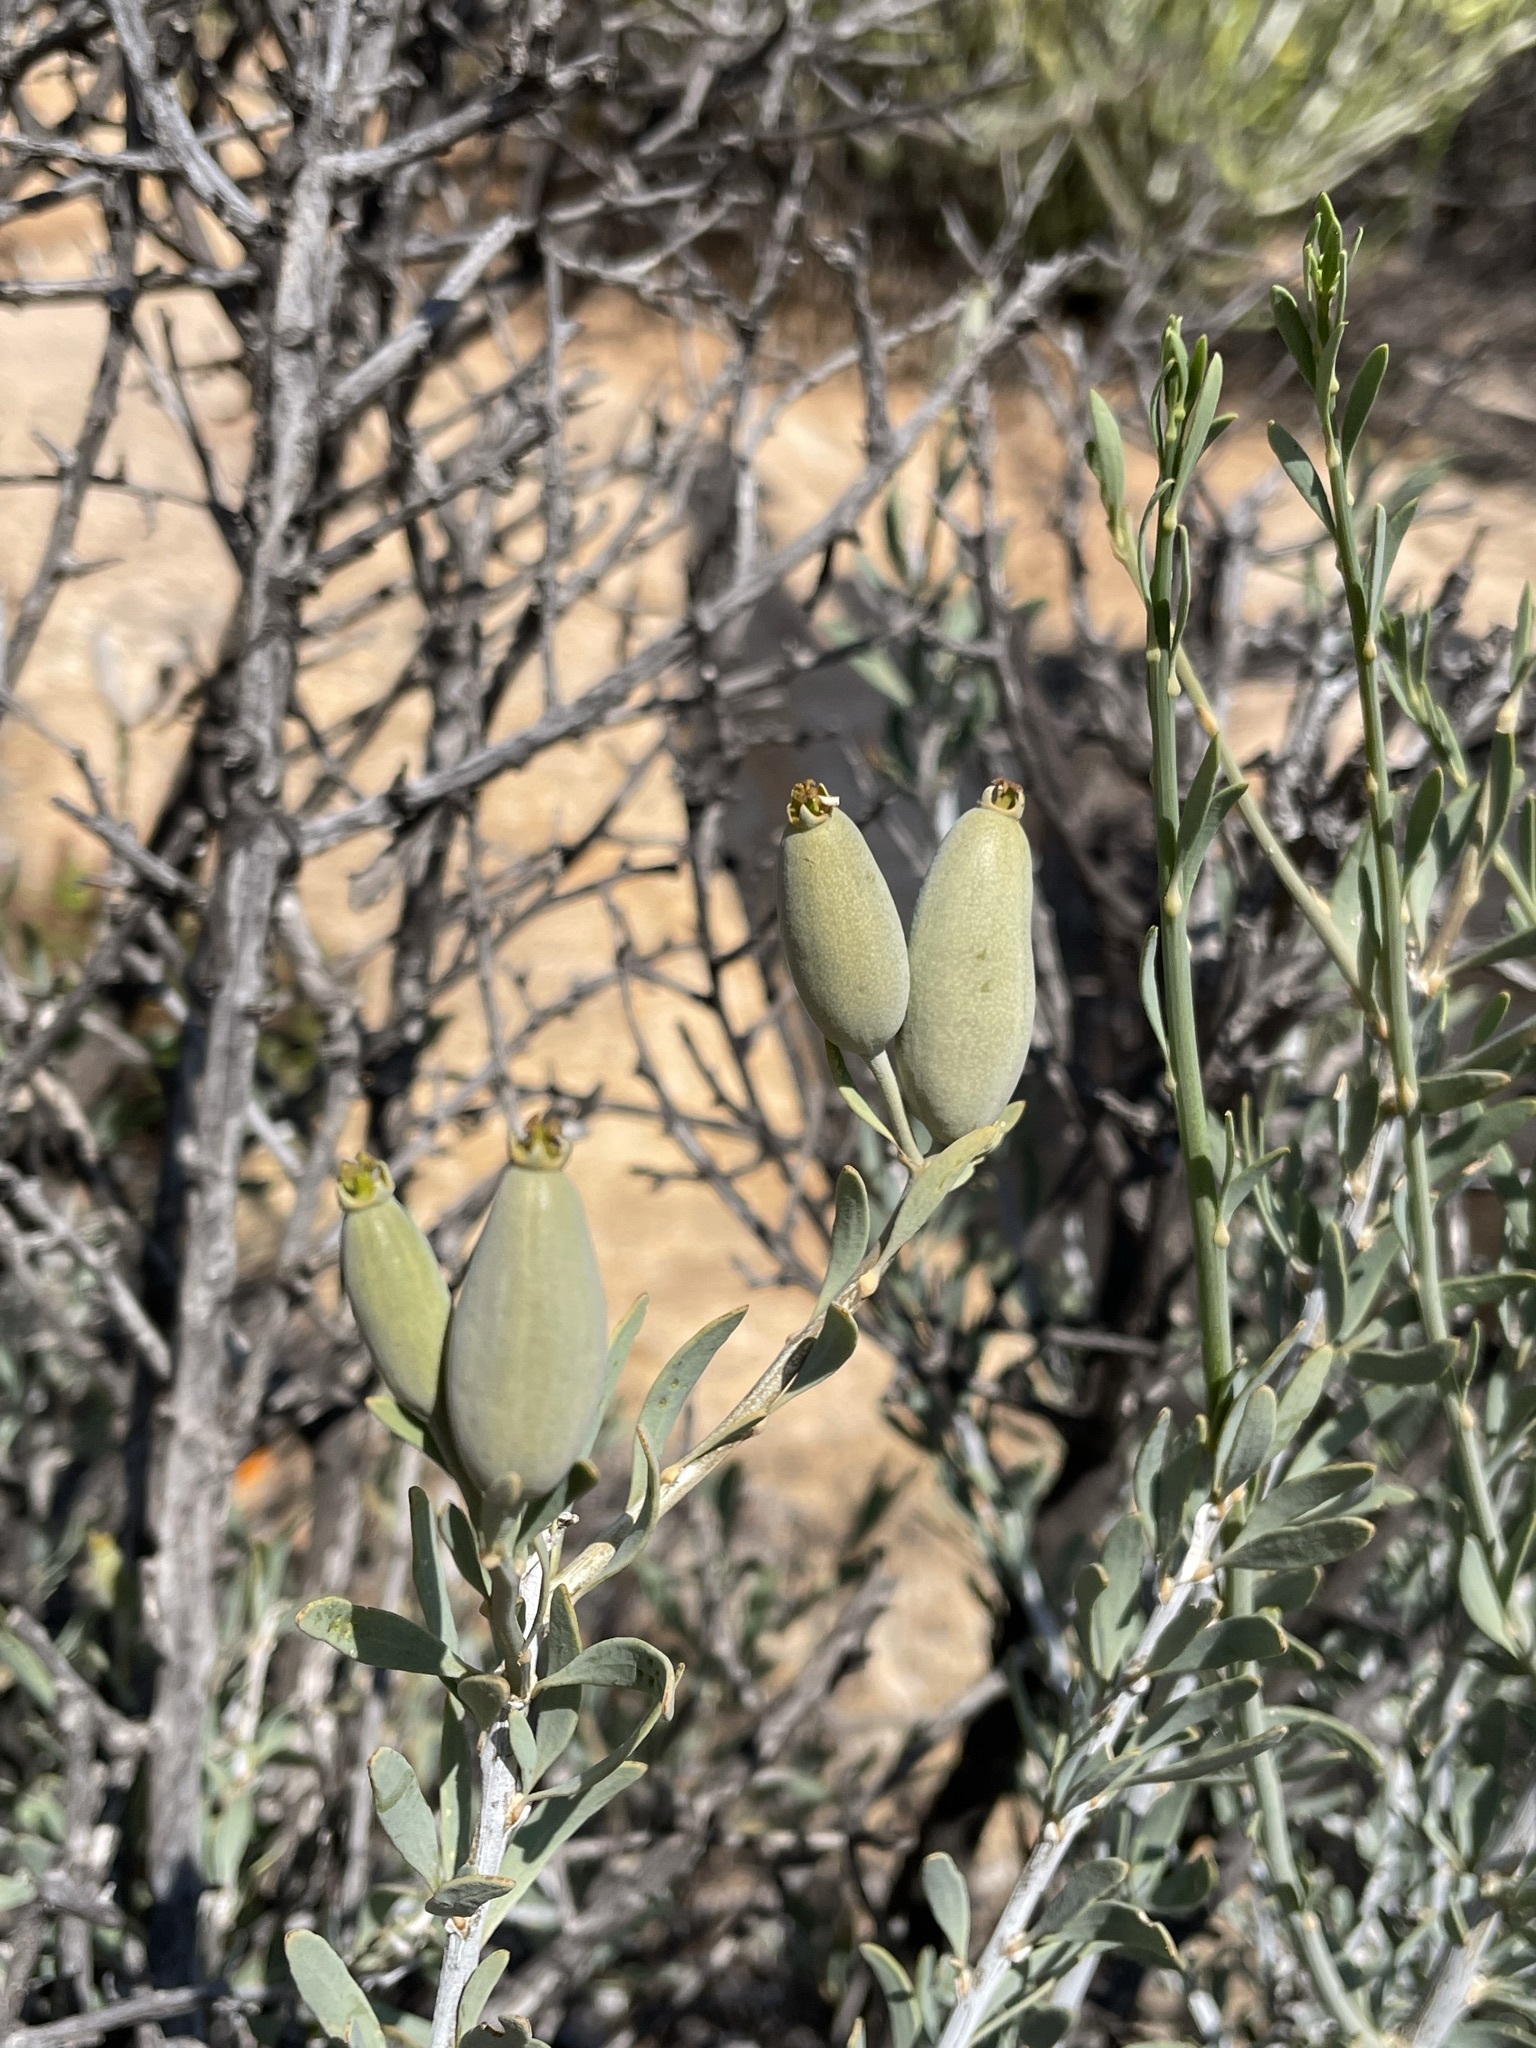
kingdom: Plantae
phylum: Tracheophyta
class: Magnoliopsida
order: Solanales
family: Montiniaceae
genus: Montinia
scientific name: Montinia caryophyllacea
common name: Wild clove-bush
